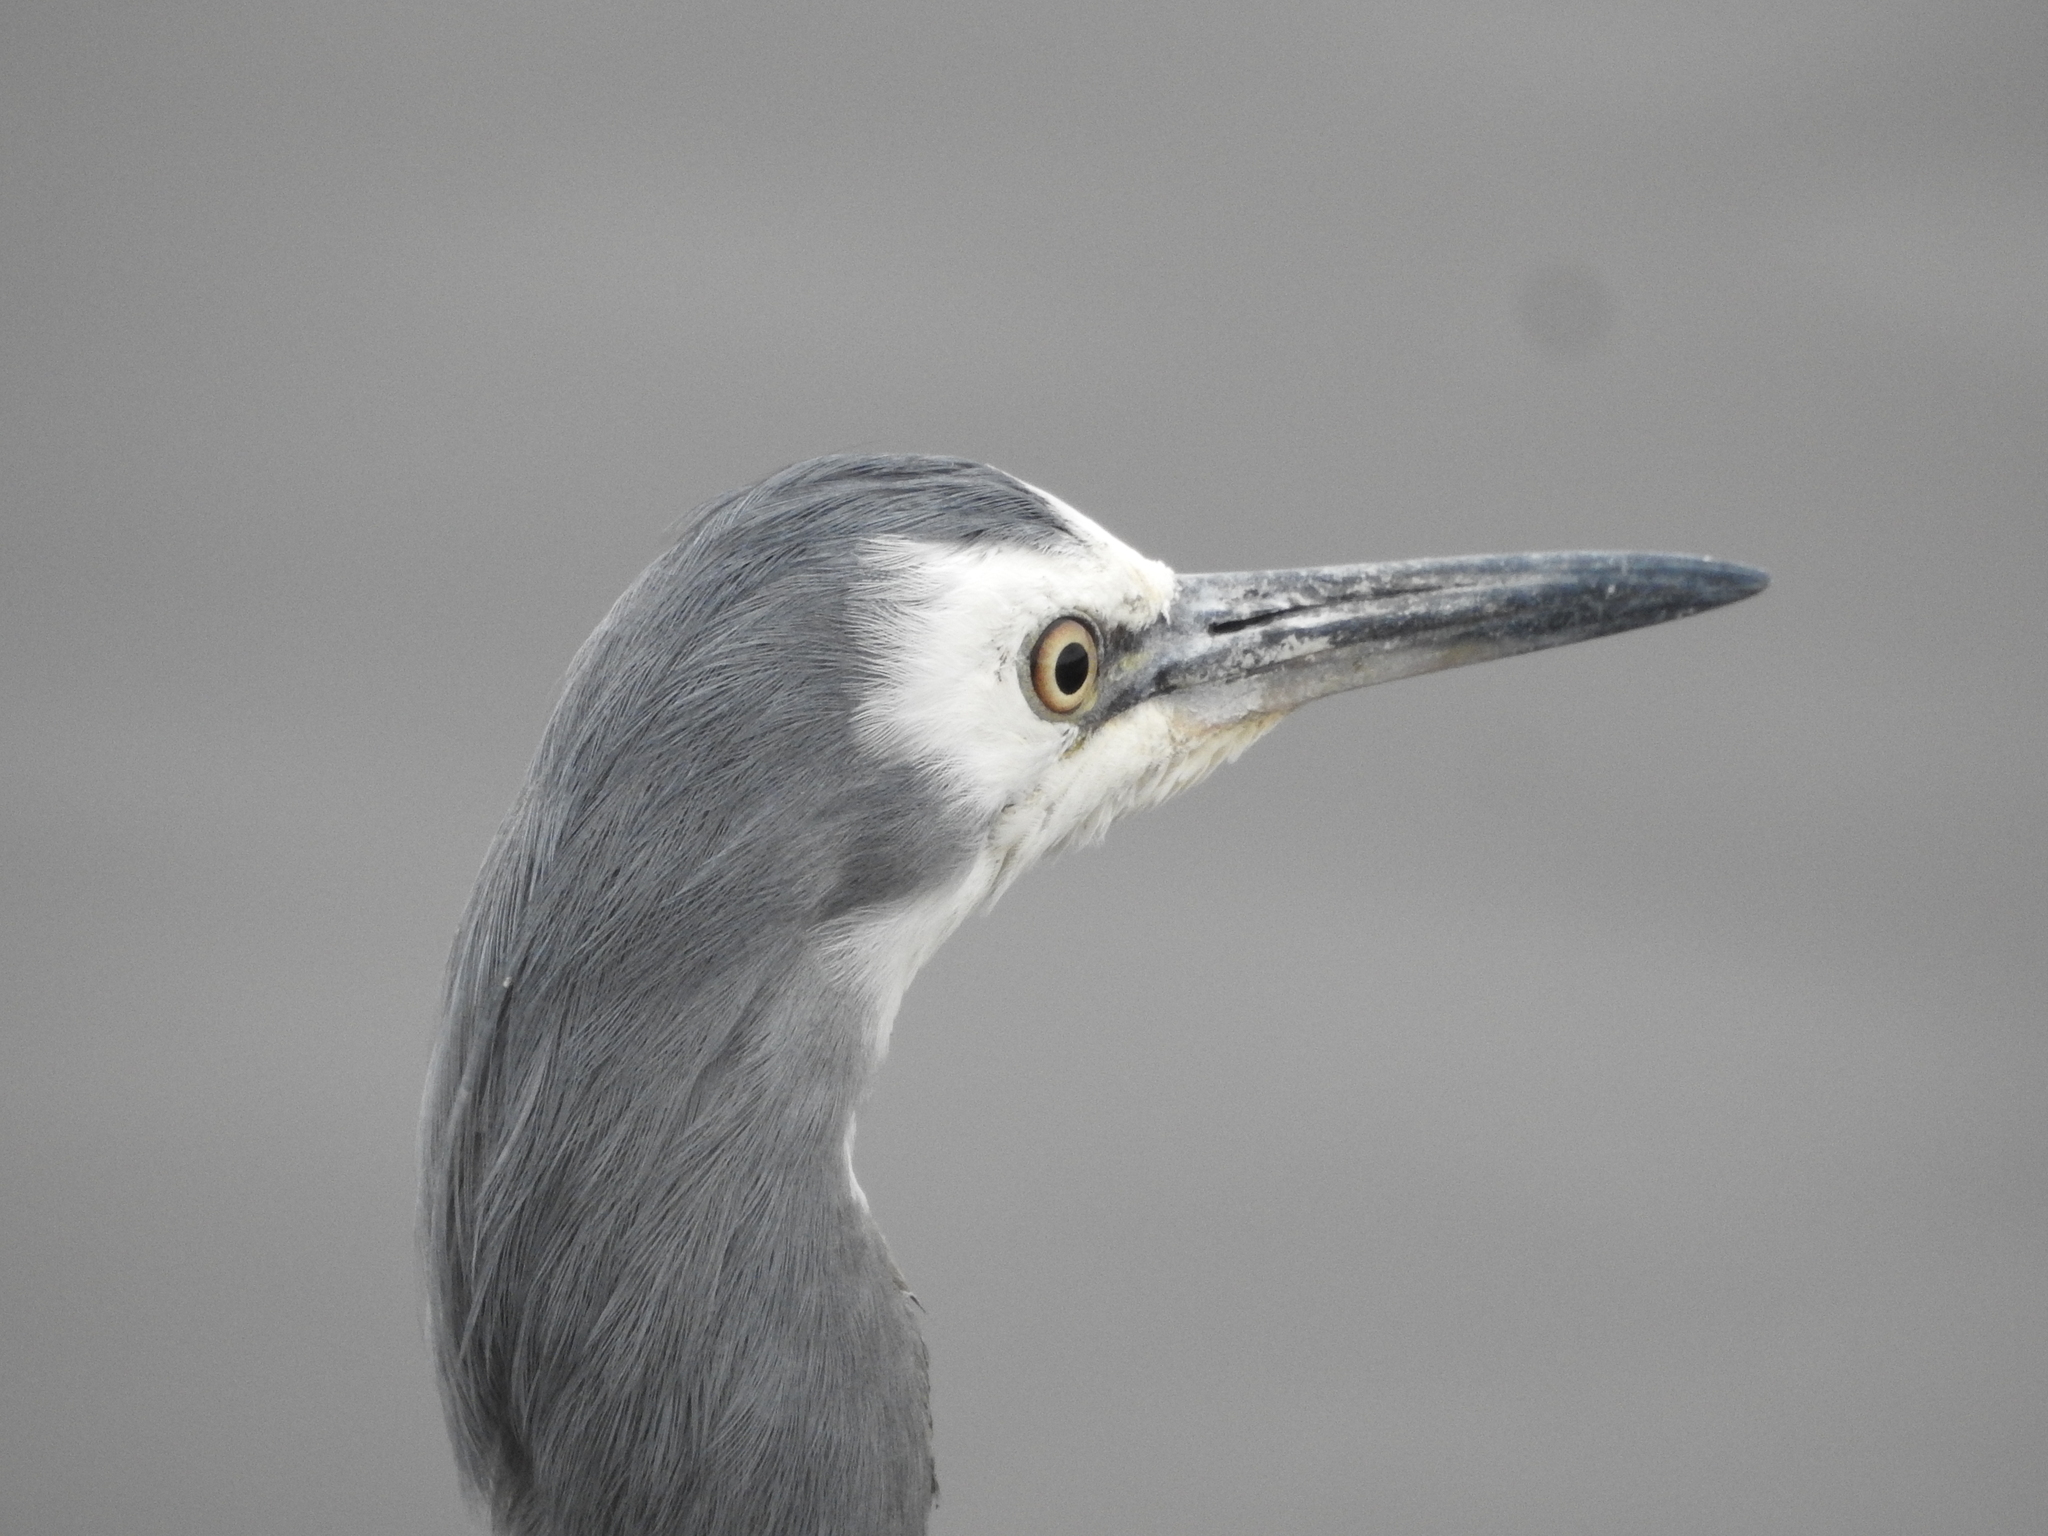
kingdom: Animalia
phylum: Chordata
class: Aves
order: Pelecaniformes
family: Ardeidae
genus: Egretta
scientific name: Egretta novaehollandiae
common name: White-faced heron
